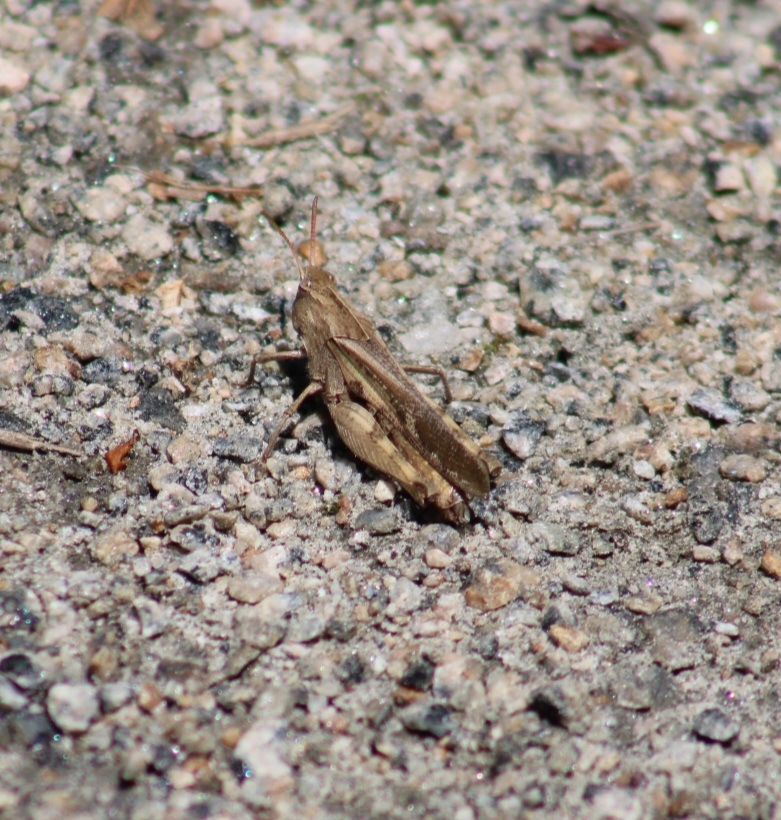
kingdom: Animalia
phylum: Arthropoda
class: Insecta
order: Orthoptera
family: Acrididae
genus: Chortophaga
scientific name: Chortophaga viridifasciata
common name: Green-striped grasshopper
